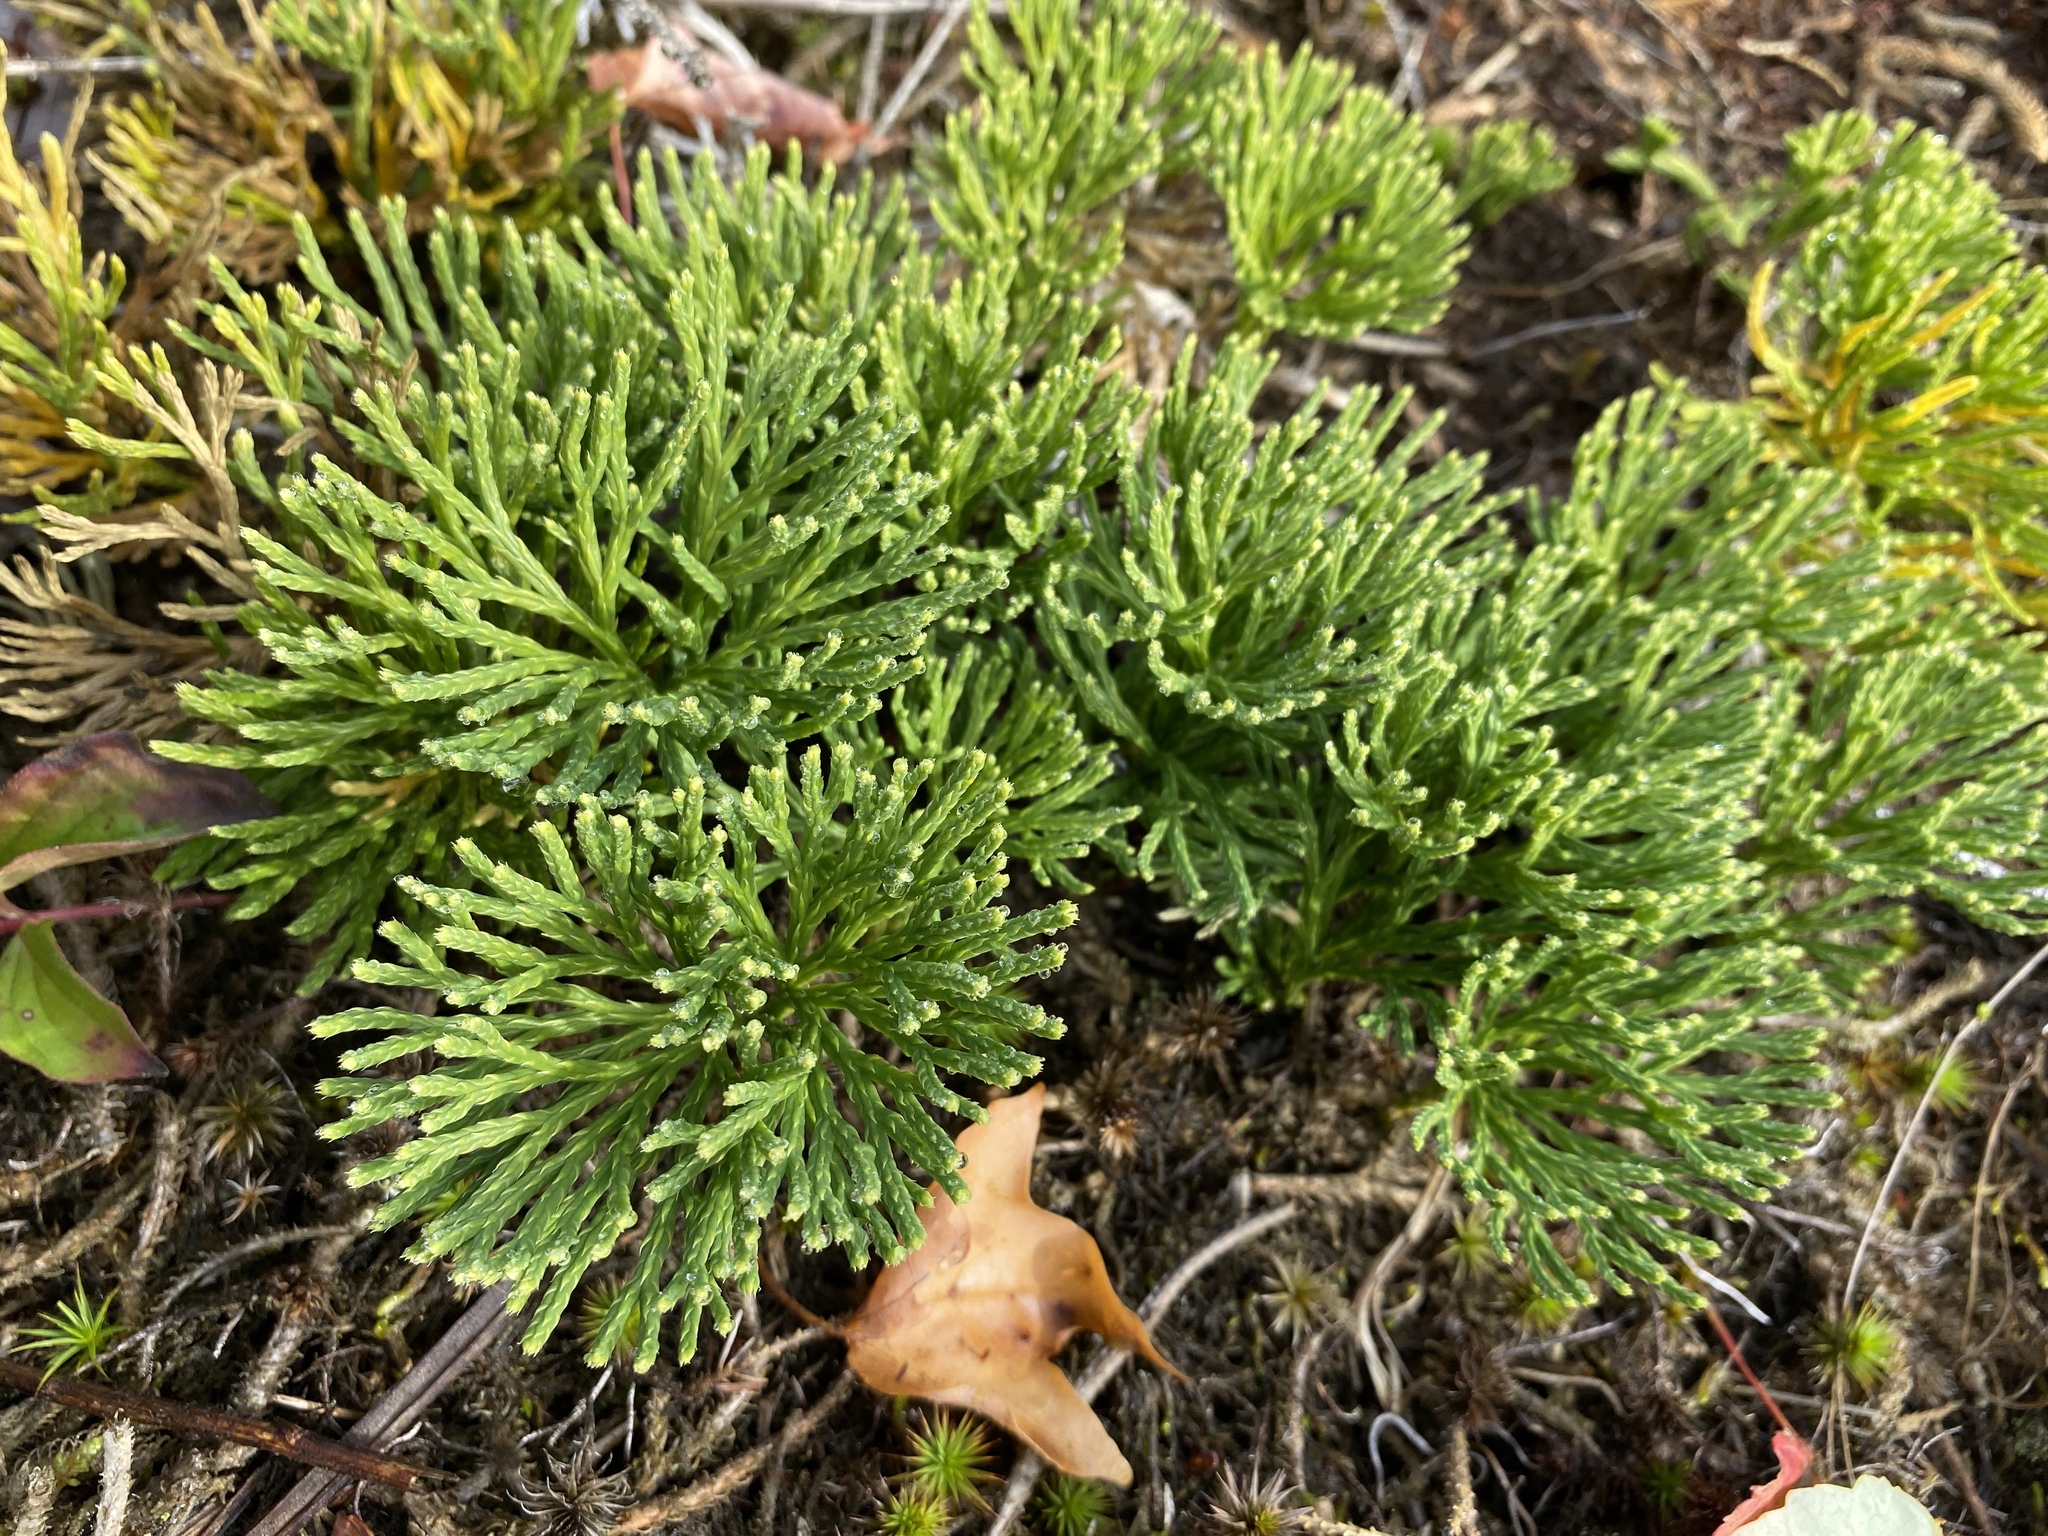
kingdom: Plantae
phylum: Tracheophyta
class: Lycopodiopsida
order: Lycopodiales
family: Lycopodiaceae
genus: Diphasiastrum
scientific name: Diphasiastrum tristachyum
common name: Blue ground-cedar
